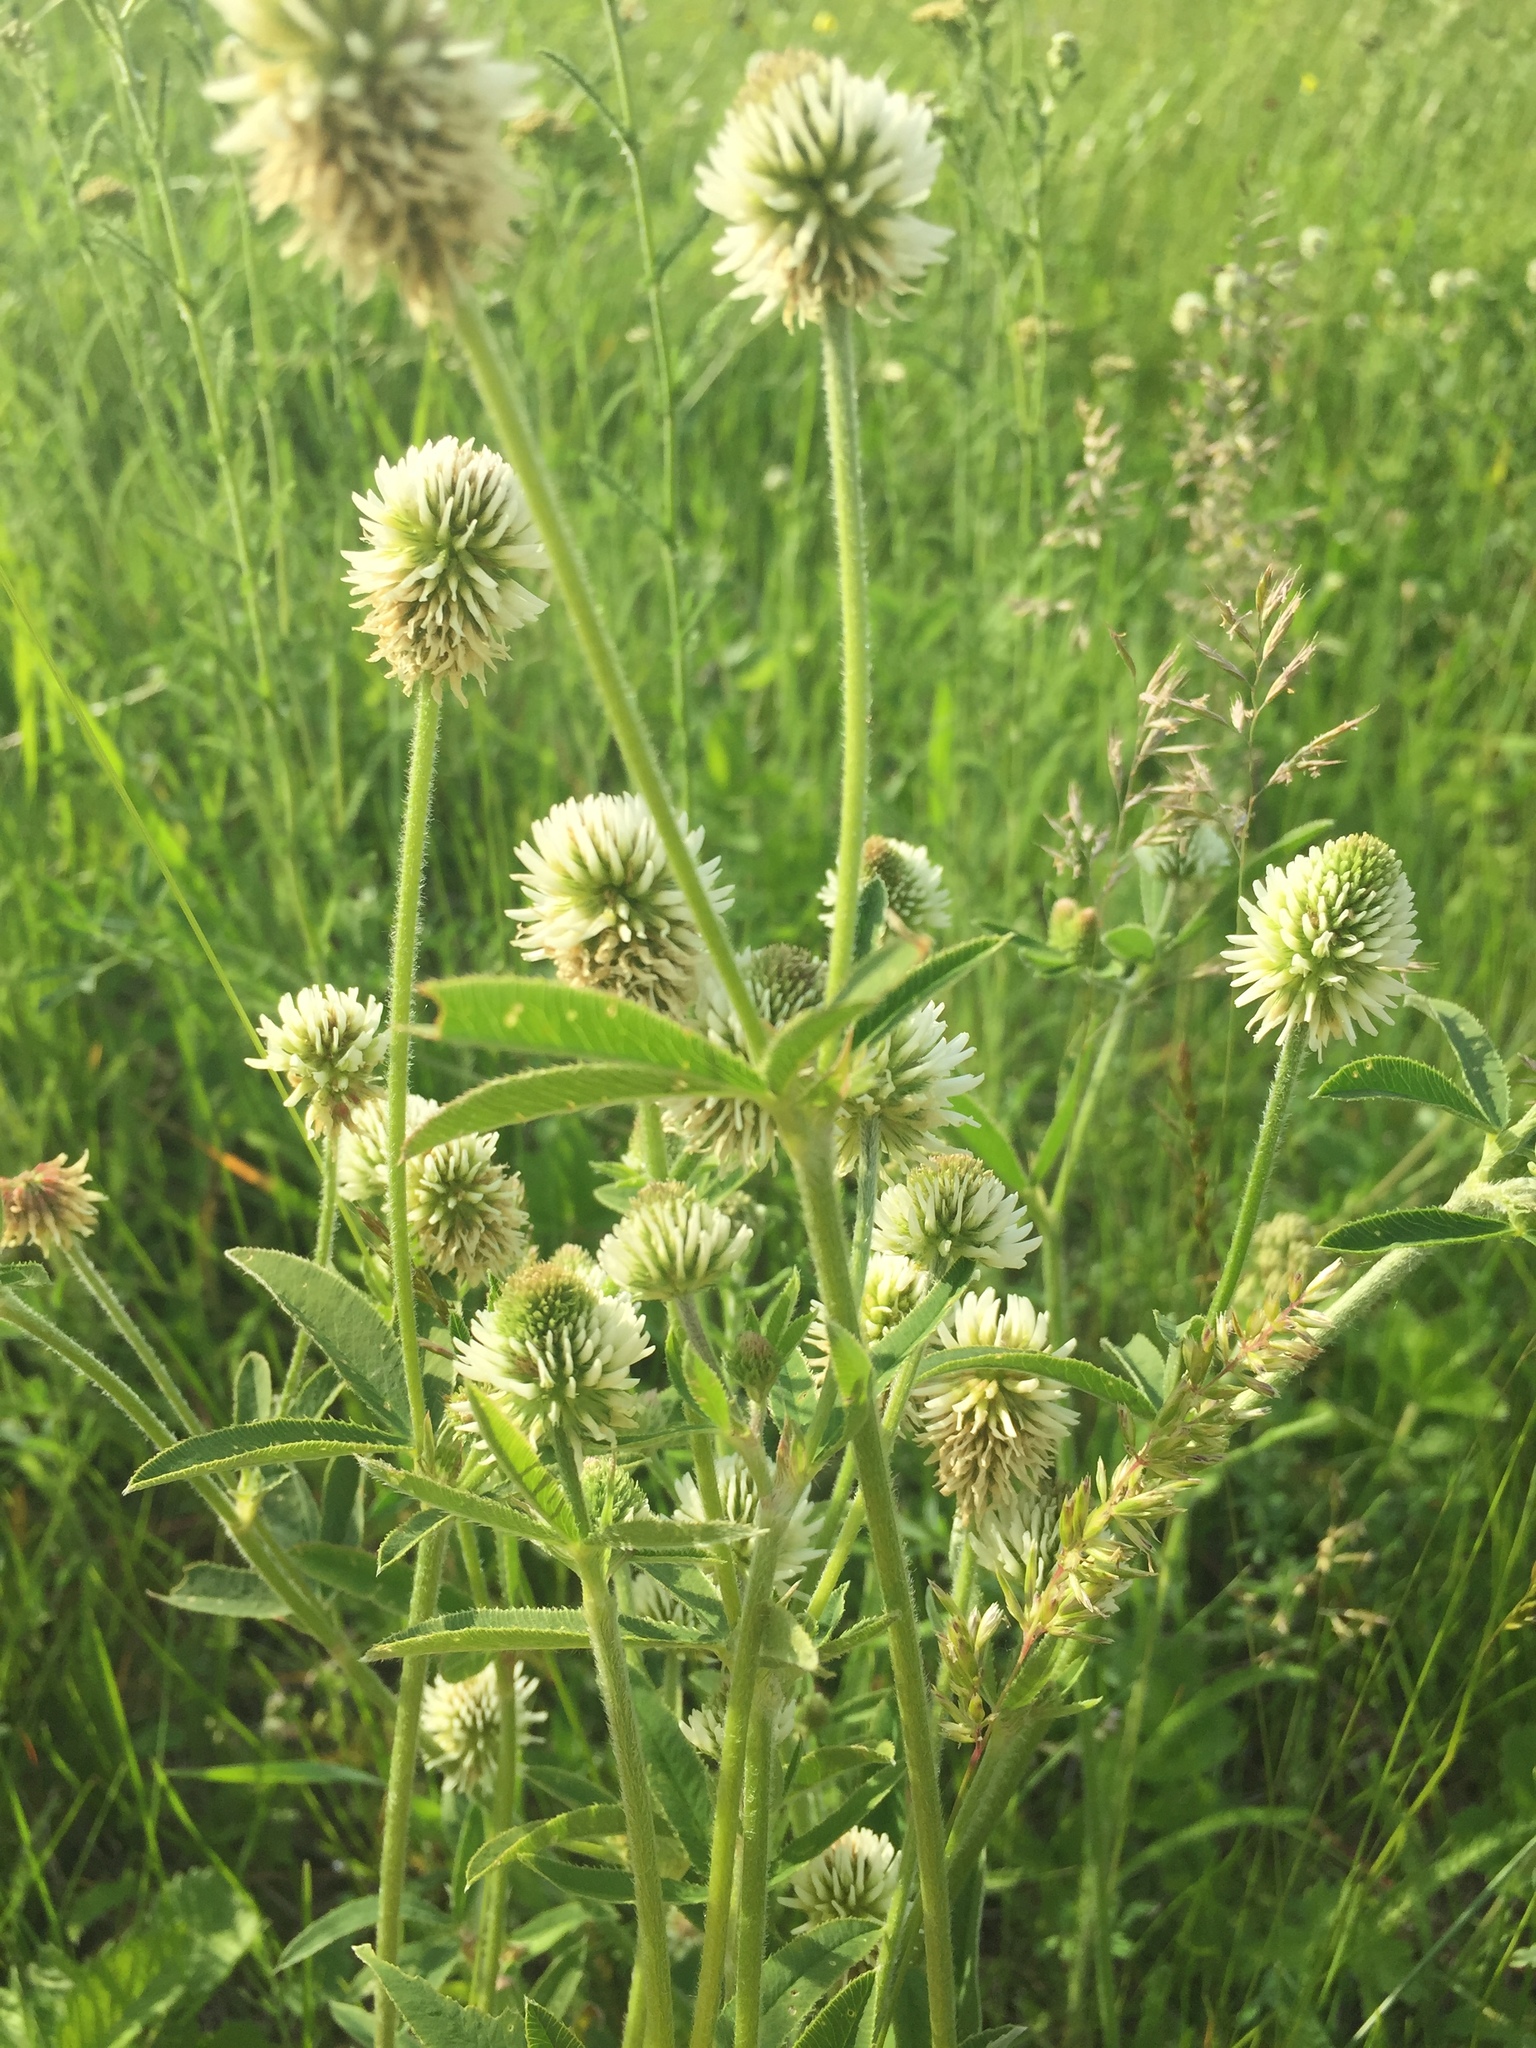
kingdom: Plantae
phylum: Tracheophyta
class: Magnoliopsida
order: Fabales
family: Fabaceae
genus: Trifolium
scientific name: Trifolium montanum
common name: Mountain clover
